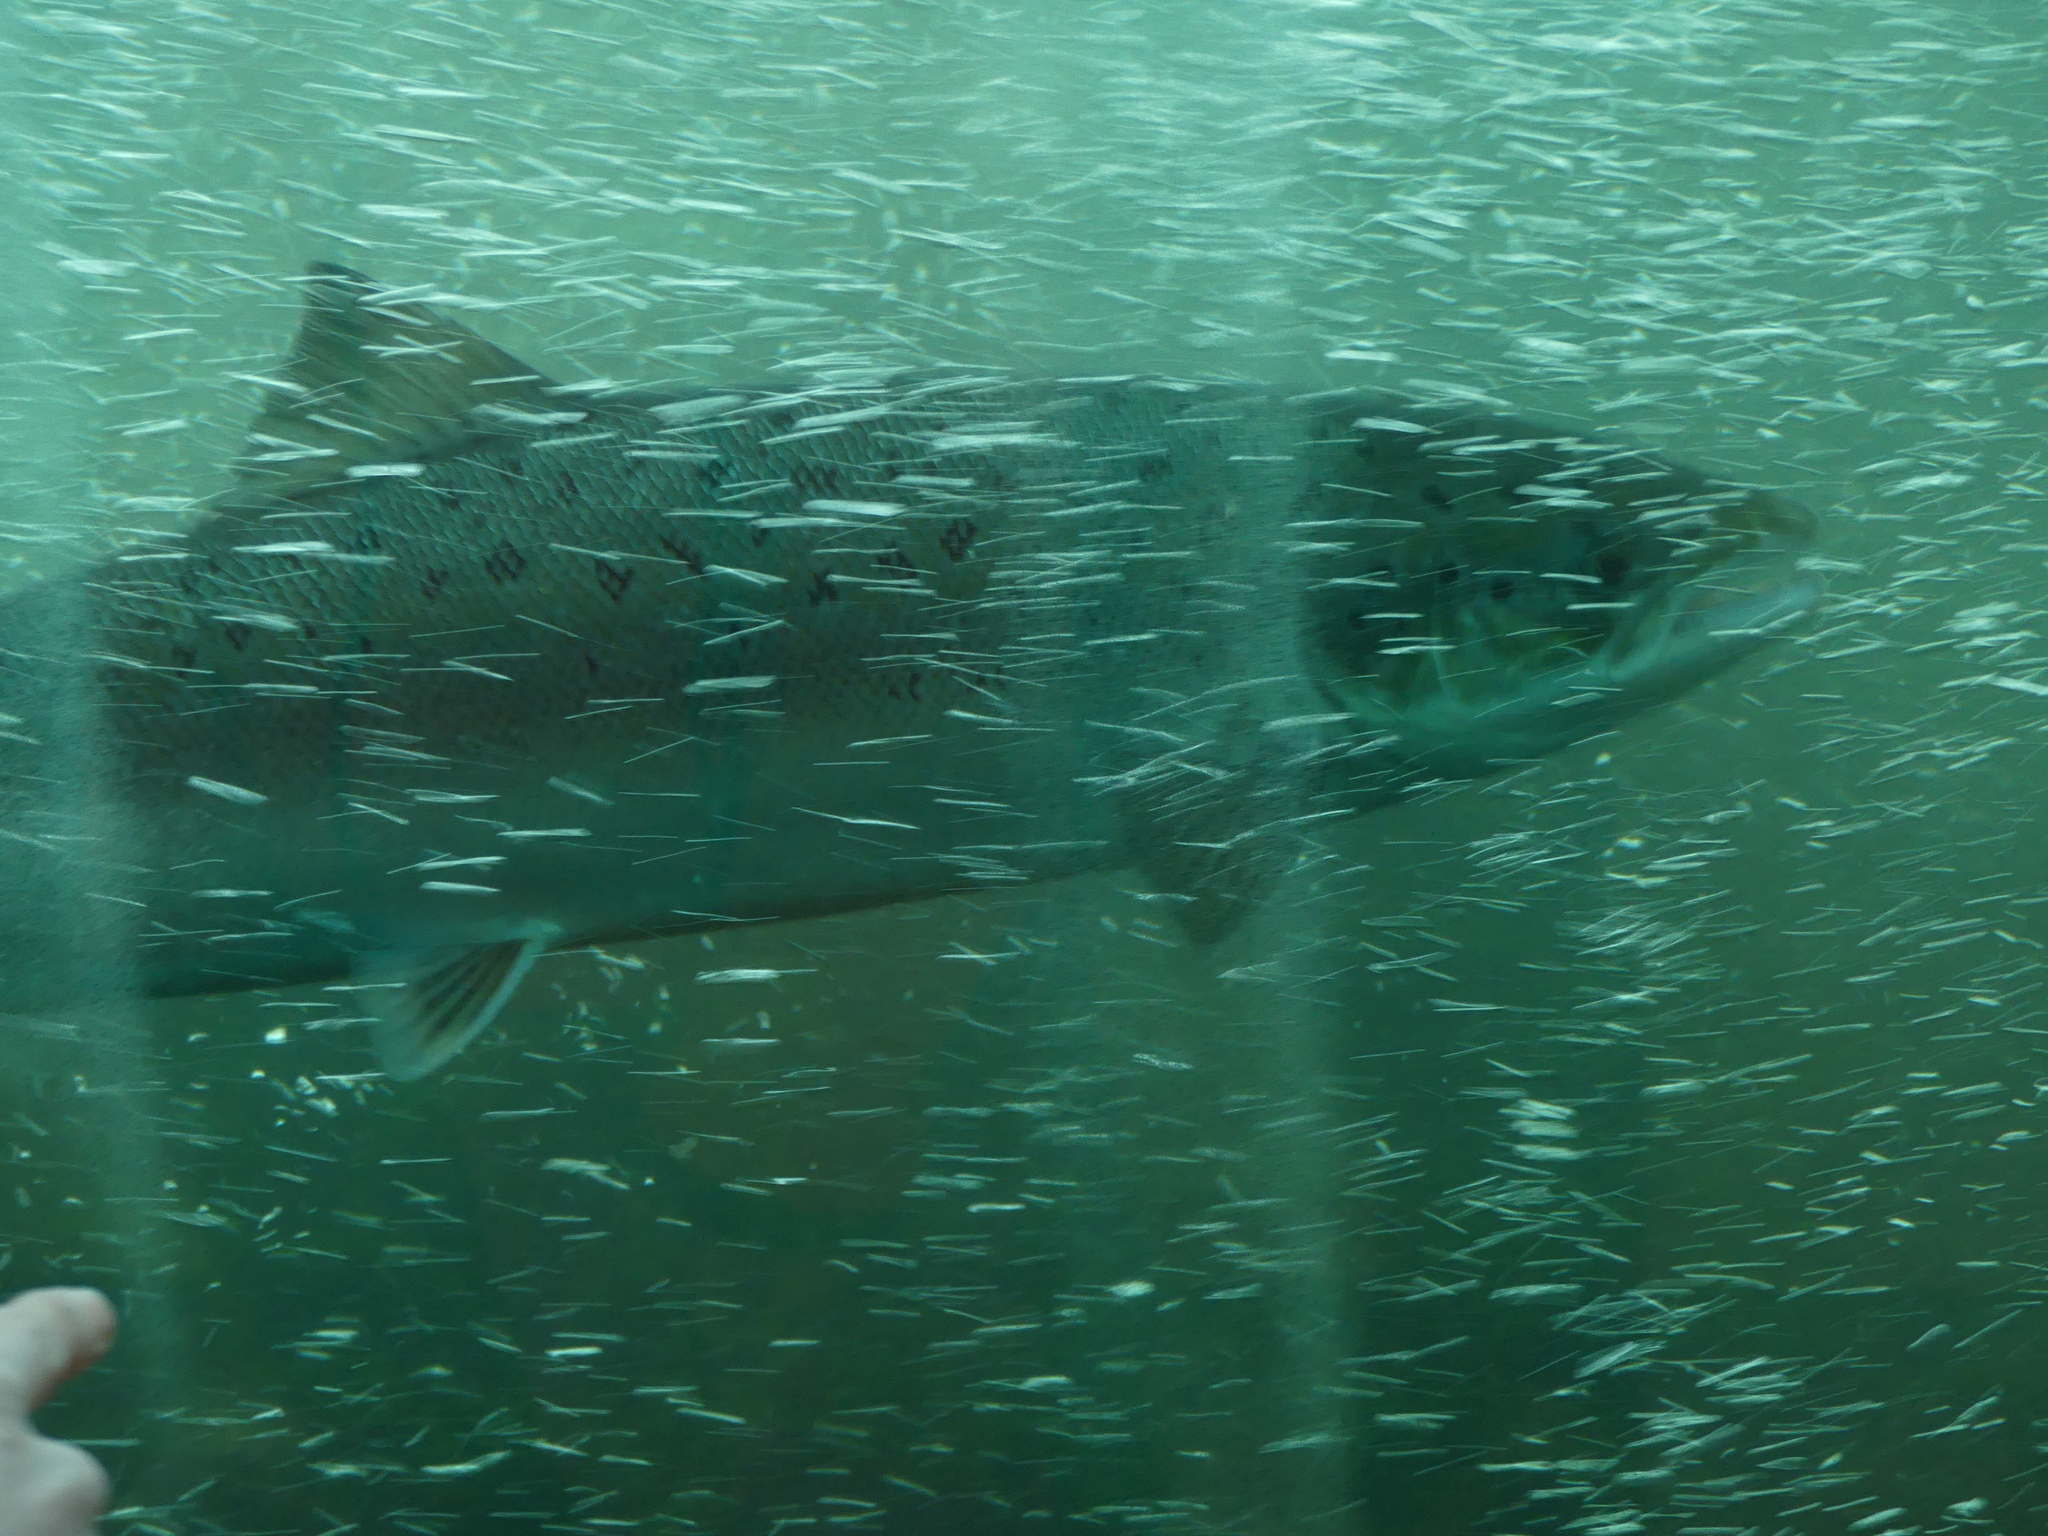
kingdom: Animalia
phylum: Chordata
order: Salmoniformes
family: Salmonidae
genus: Salmo
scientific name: Salmo salar
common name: Atlantic salmon
